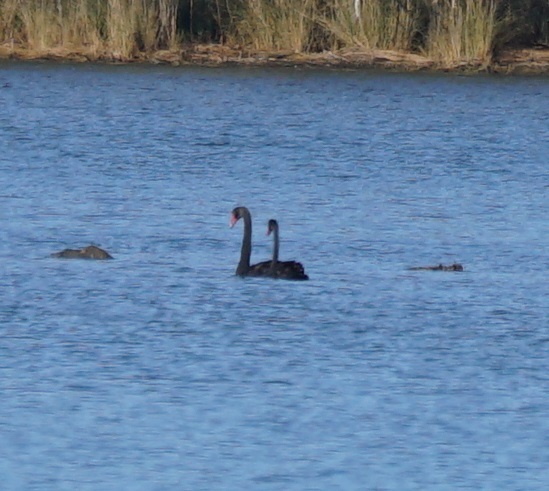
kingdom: Animalia
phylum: Chordata
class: Aves
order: Anseriformes
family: Anatidae
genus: Cygnus
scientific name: Cygnus atratus
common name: Black swan
